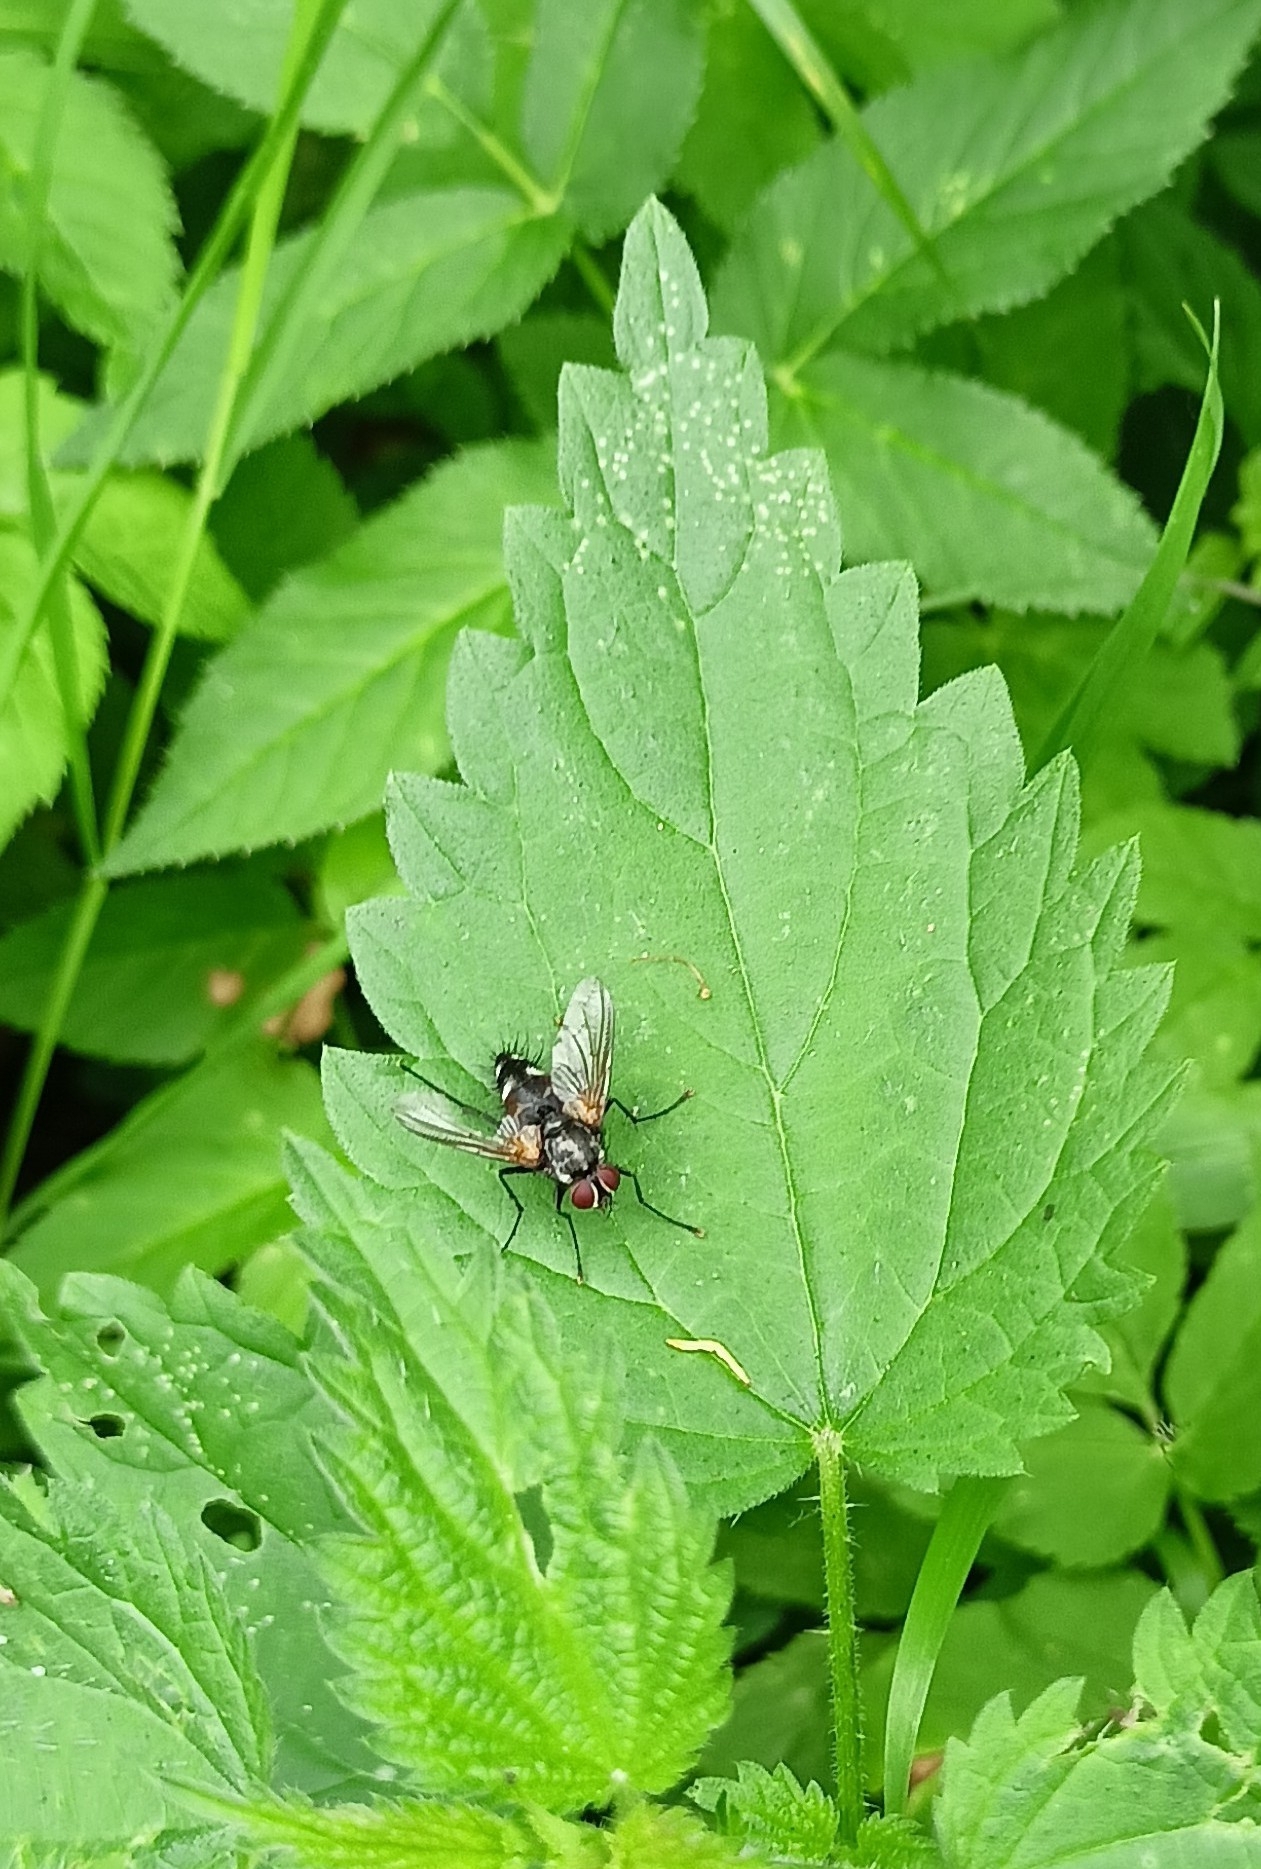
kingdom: Animalia
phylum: Arthropoda
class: Insecta
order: Diptera
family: Tachinidae
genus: Thelaira
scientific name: Thelaira nigripes
